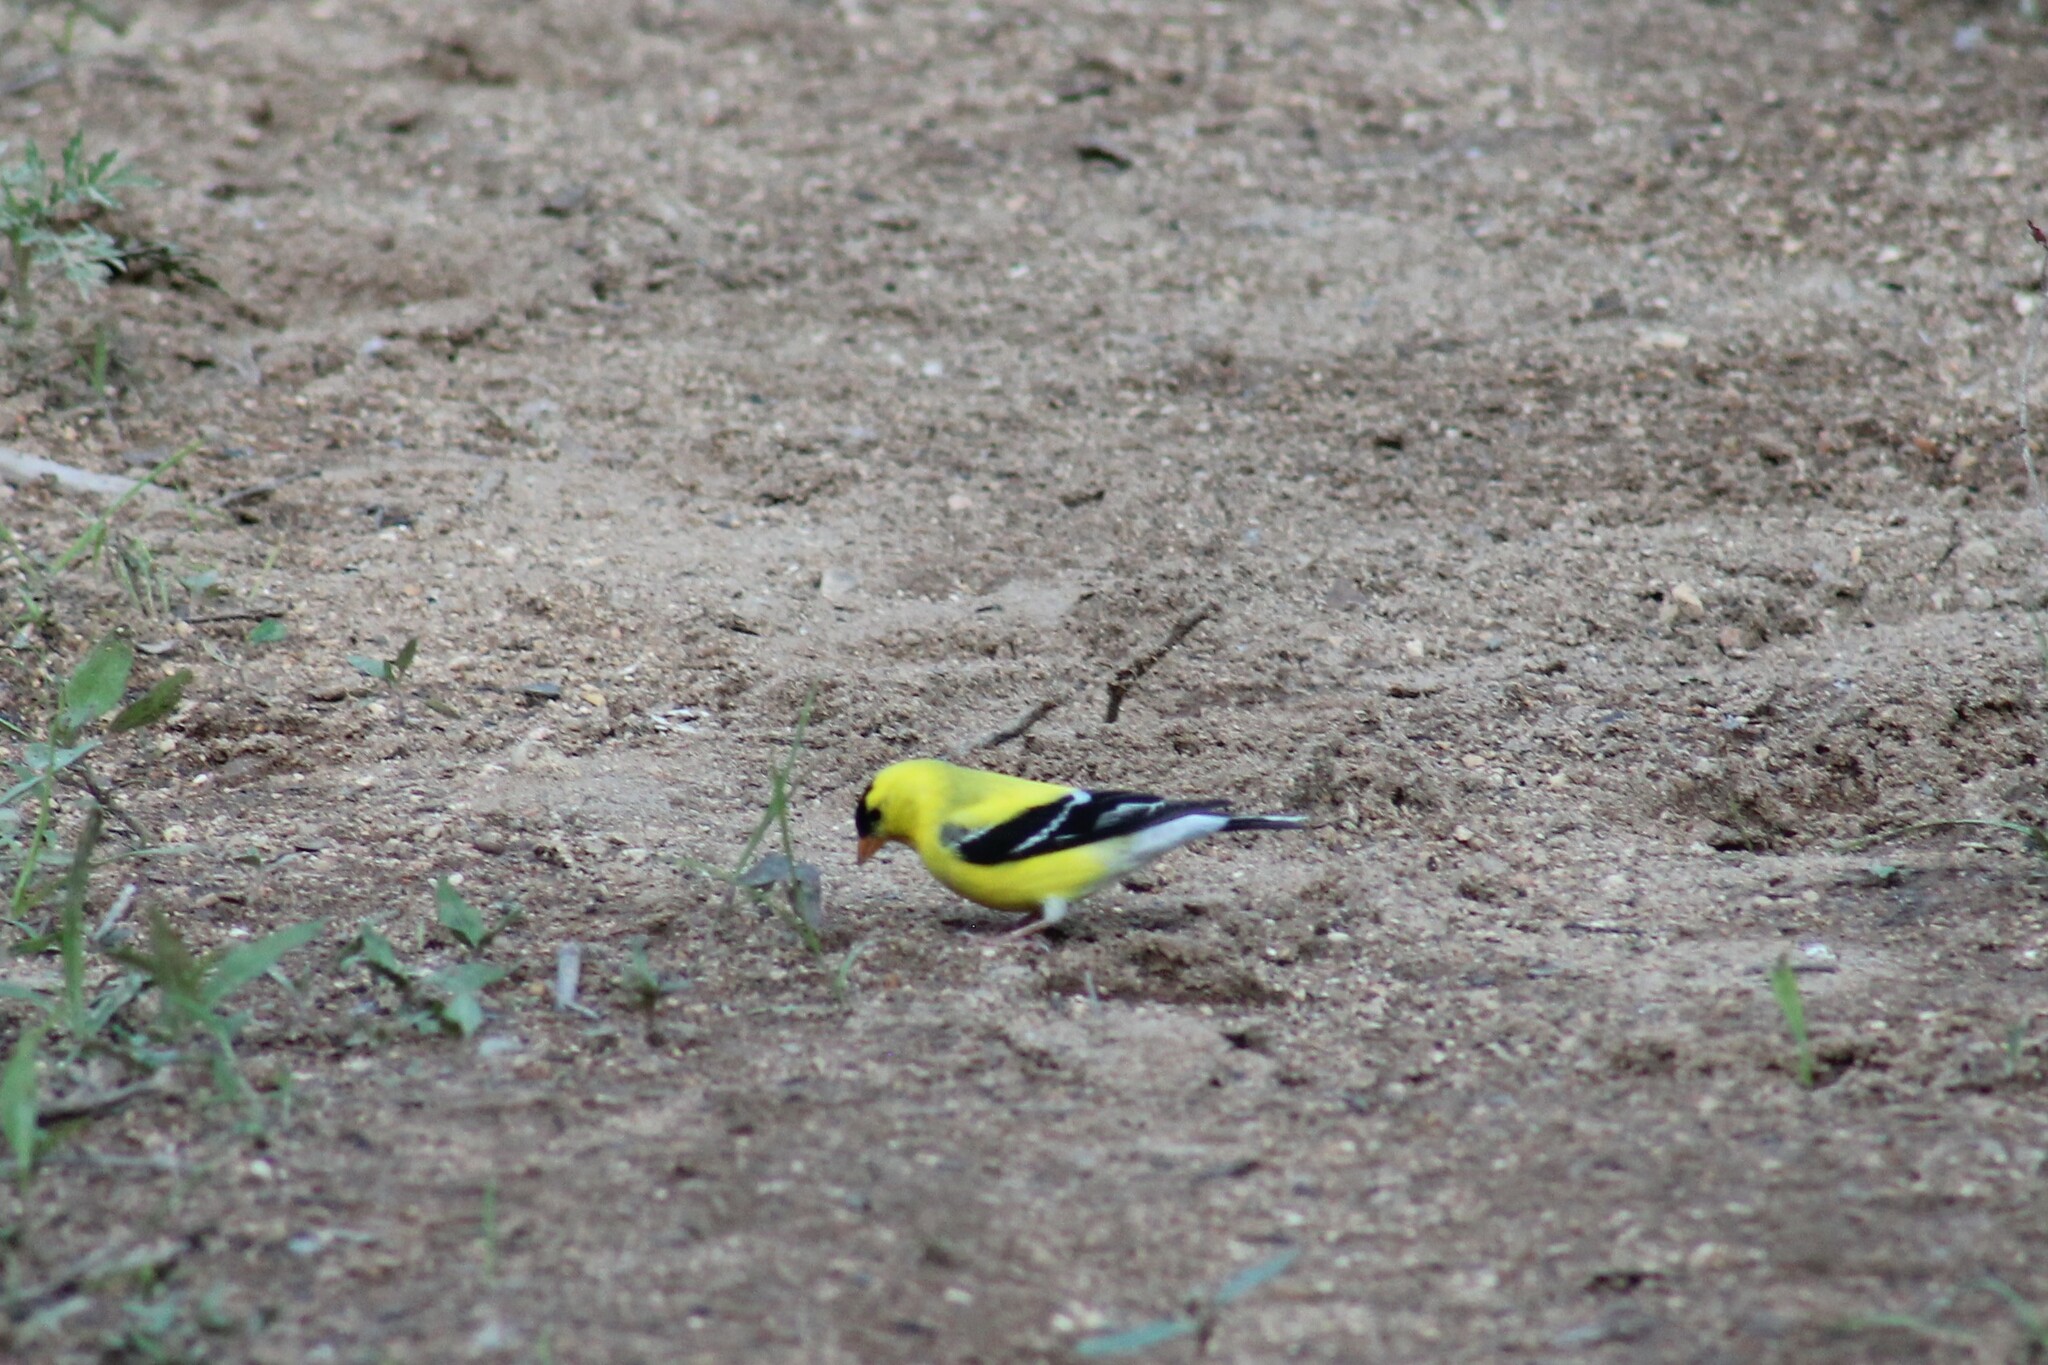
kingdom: Animalia
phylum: Chordata
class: Aves
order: Passeriformes
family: Fringillidae
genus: Spinus
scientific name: Spinus tristis
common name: American goldfinch
